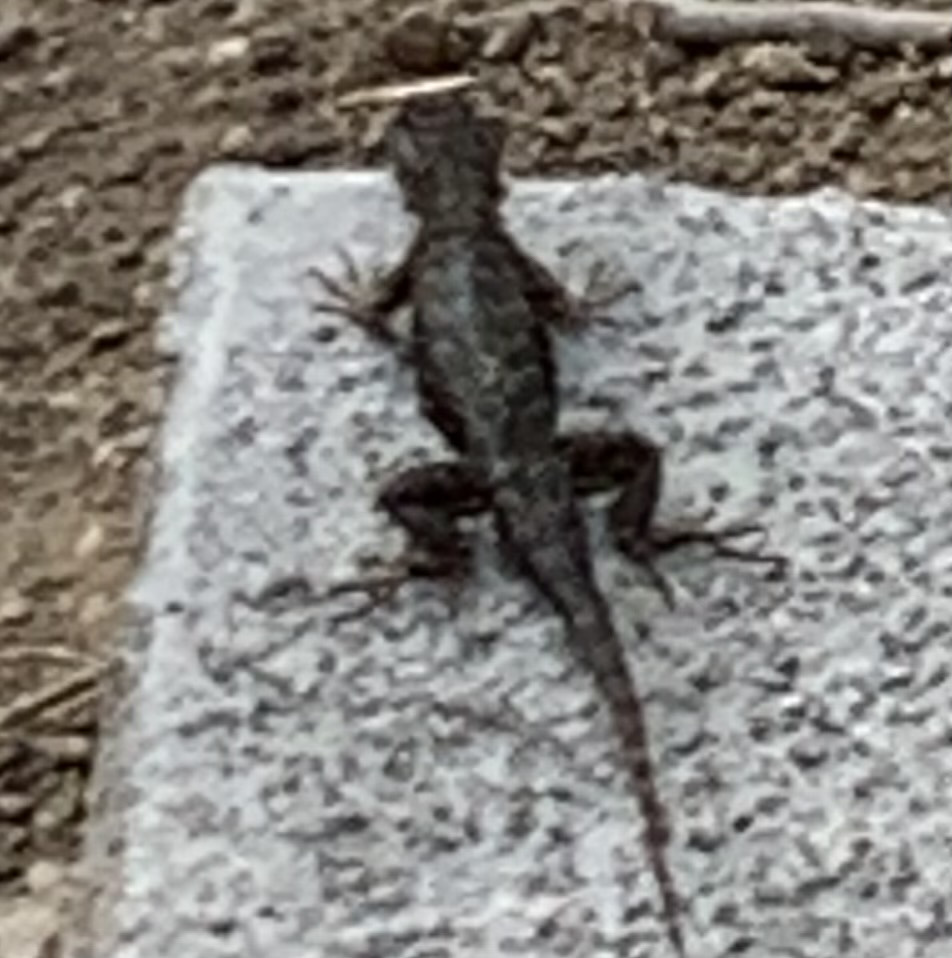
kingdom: Animalia
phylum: Chordata
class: Squamata
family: Phrynosomatidae
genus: Sceloporus
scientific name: Sceloporus occidentalis
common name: Western fence lizard
